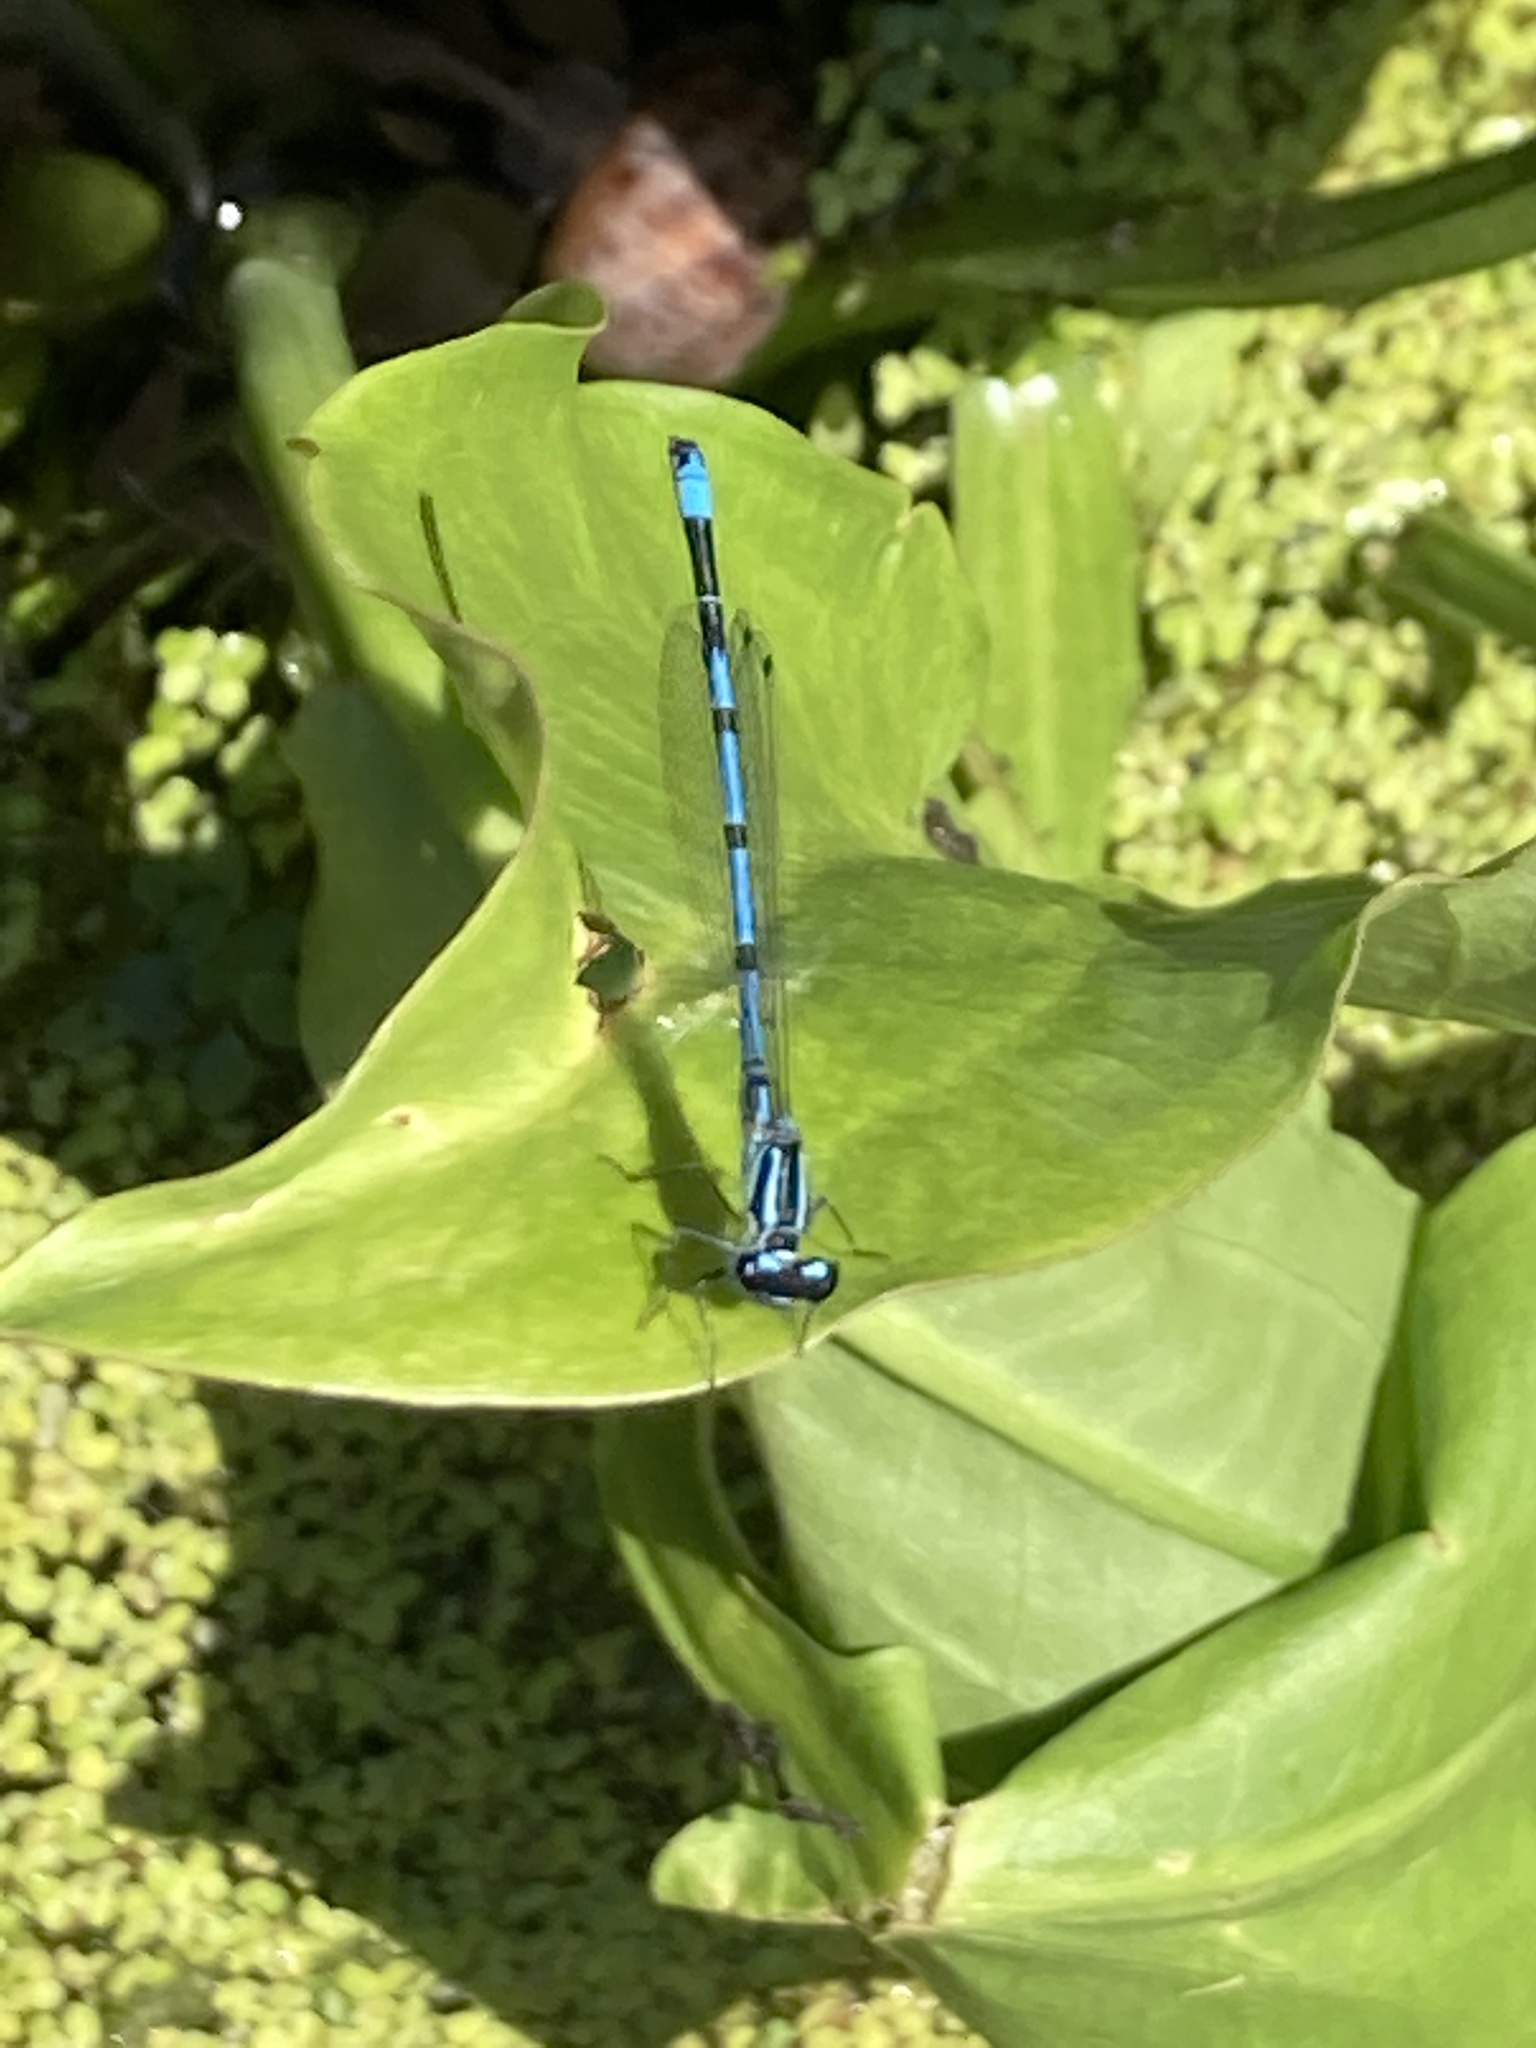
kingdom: Animalia
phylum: Arthropoda
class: Insecta
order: Odonata
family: Coenagrionidae
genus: Coenagrion
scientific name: Coenagrion puella
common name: Azure damselfly
